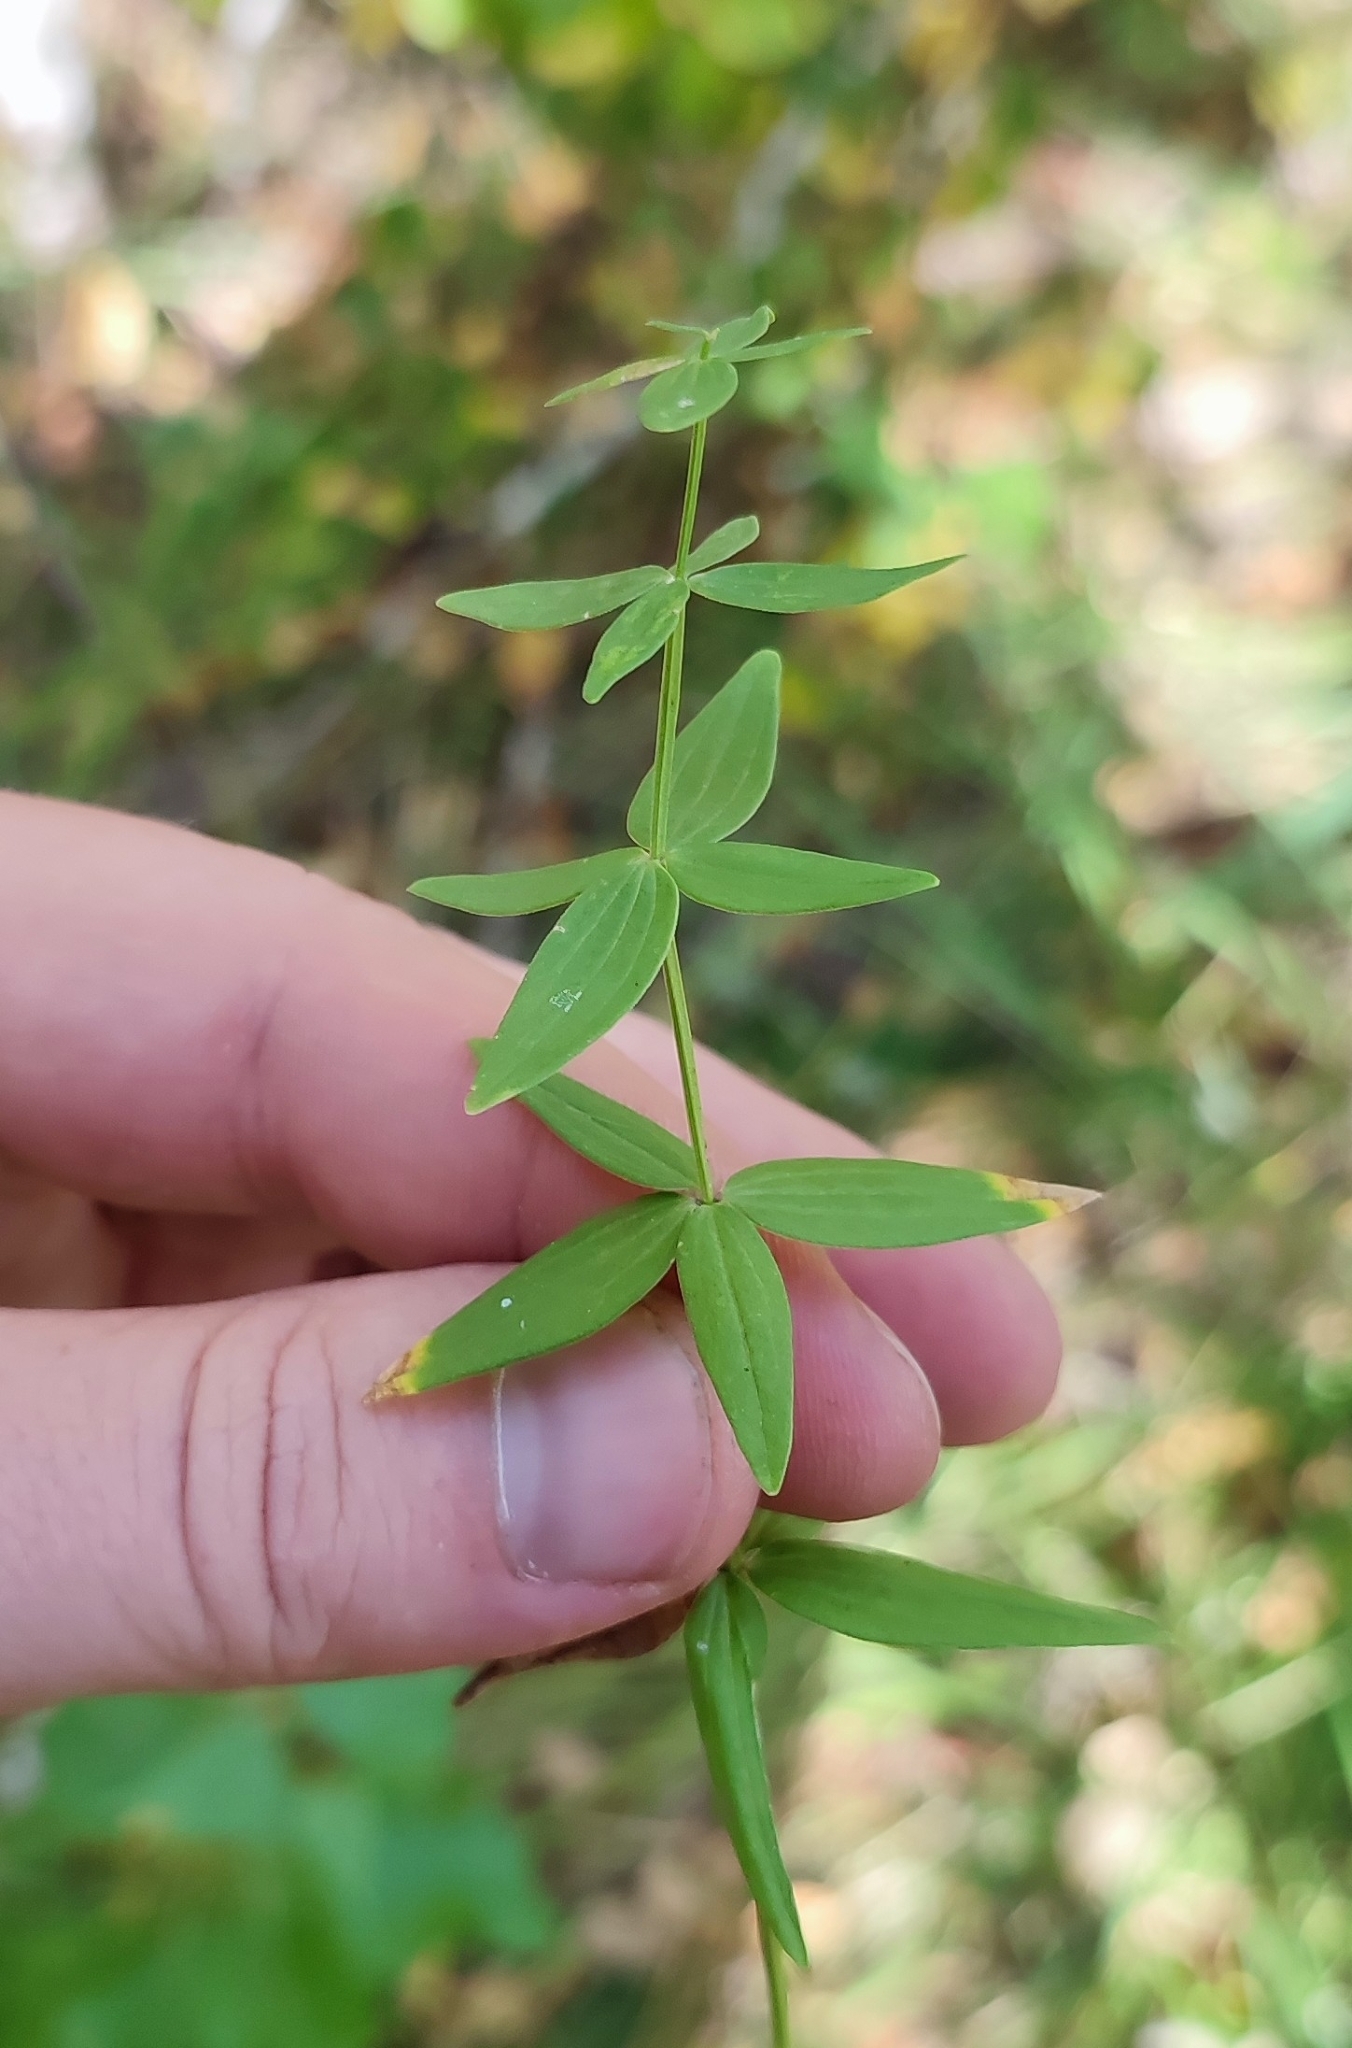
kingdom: Plantae
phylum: Tracheophyta
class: Magnoliopsida
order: Gentianales
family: Rubiaceae
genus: Galium
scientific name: Galium boreale
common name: Northern bedstraw
